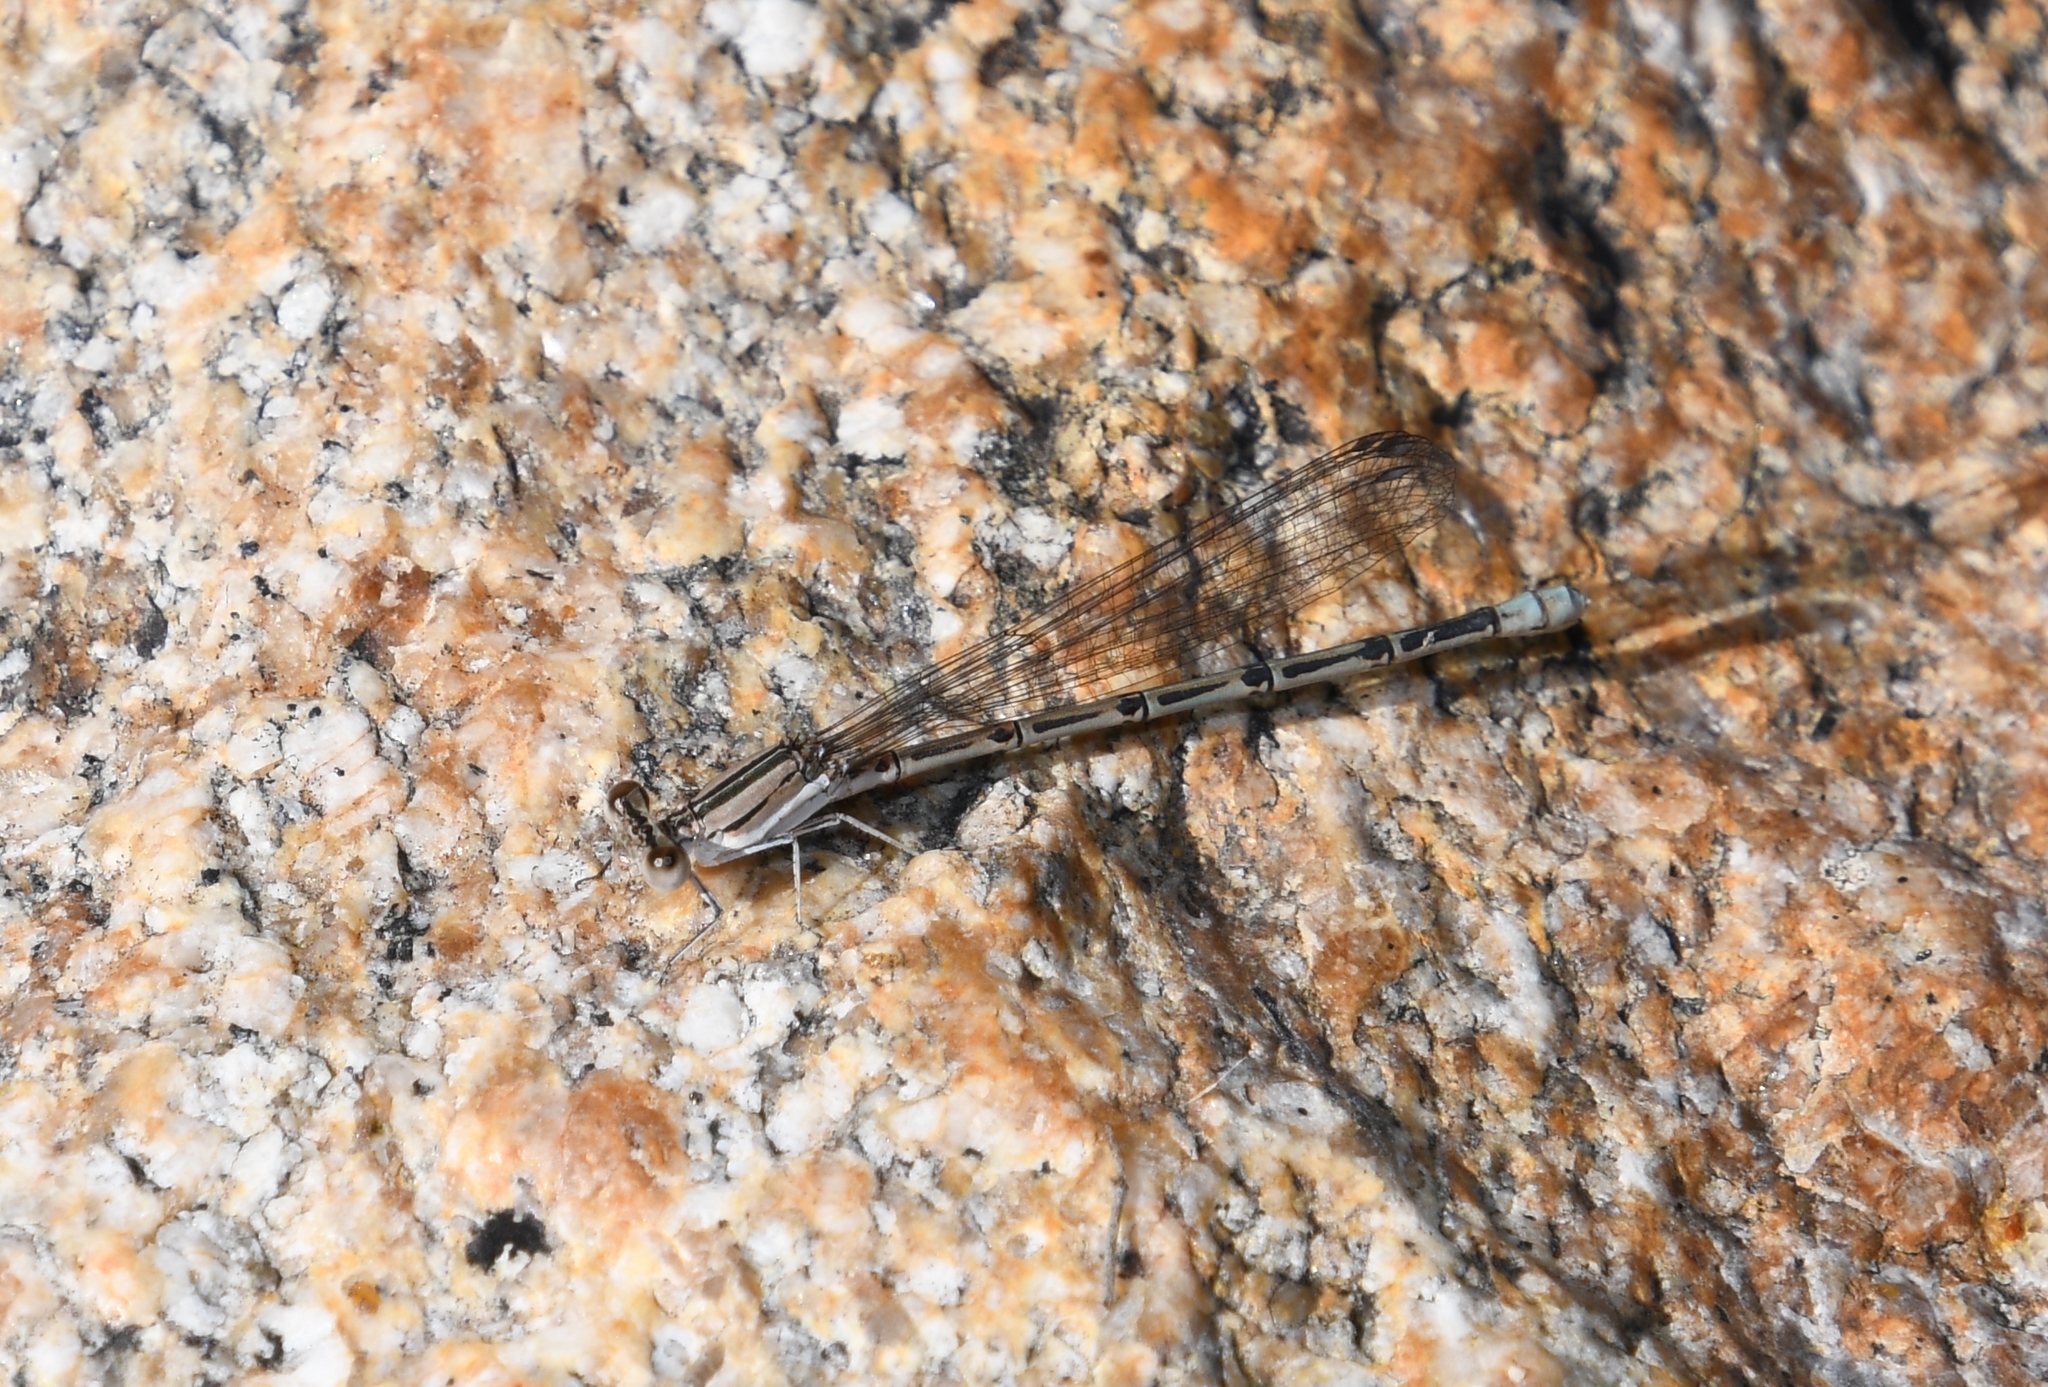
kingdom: Animalia
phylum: Arthropoda
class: Insecta
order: Odonata
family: Coenagrionidae
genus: Argia
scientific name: Argia hinei
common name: Lavender dancer
